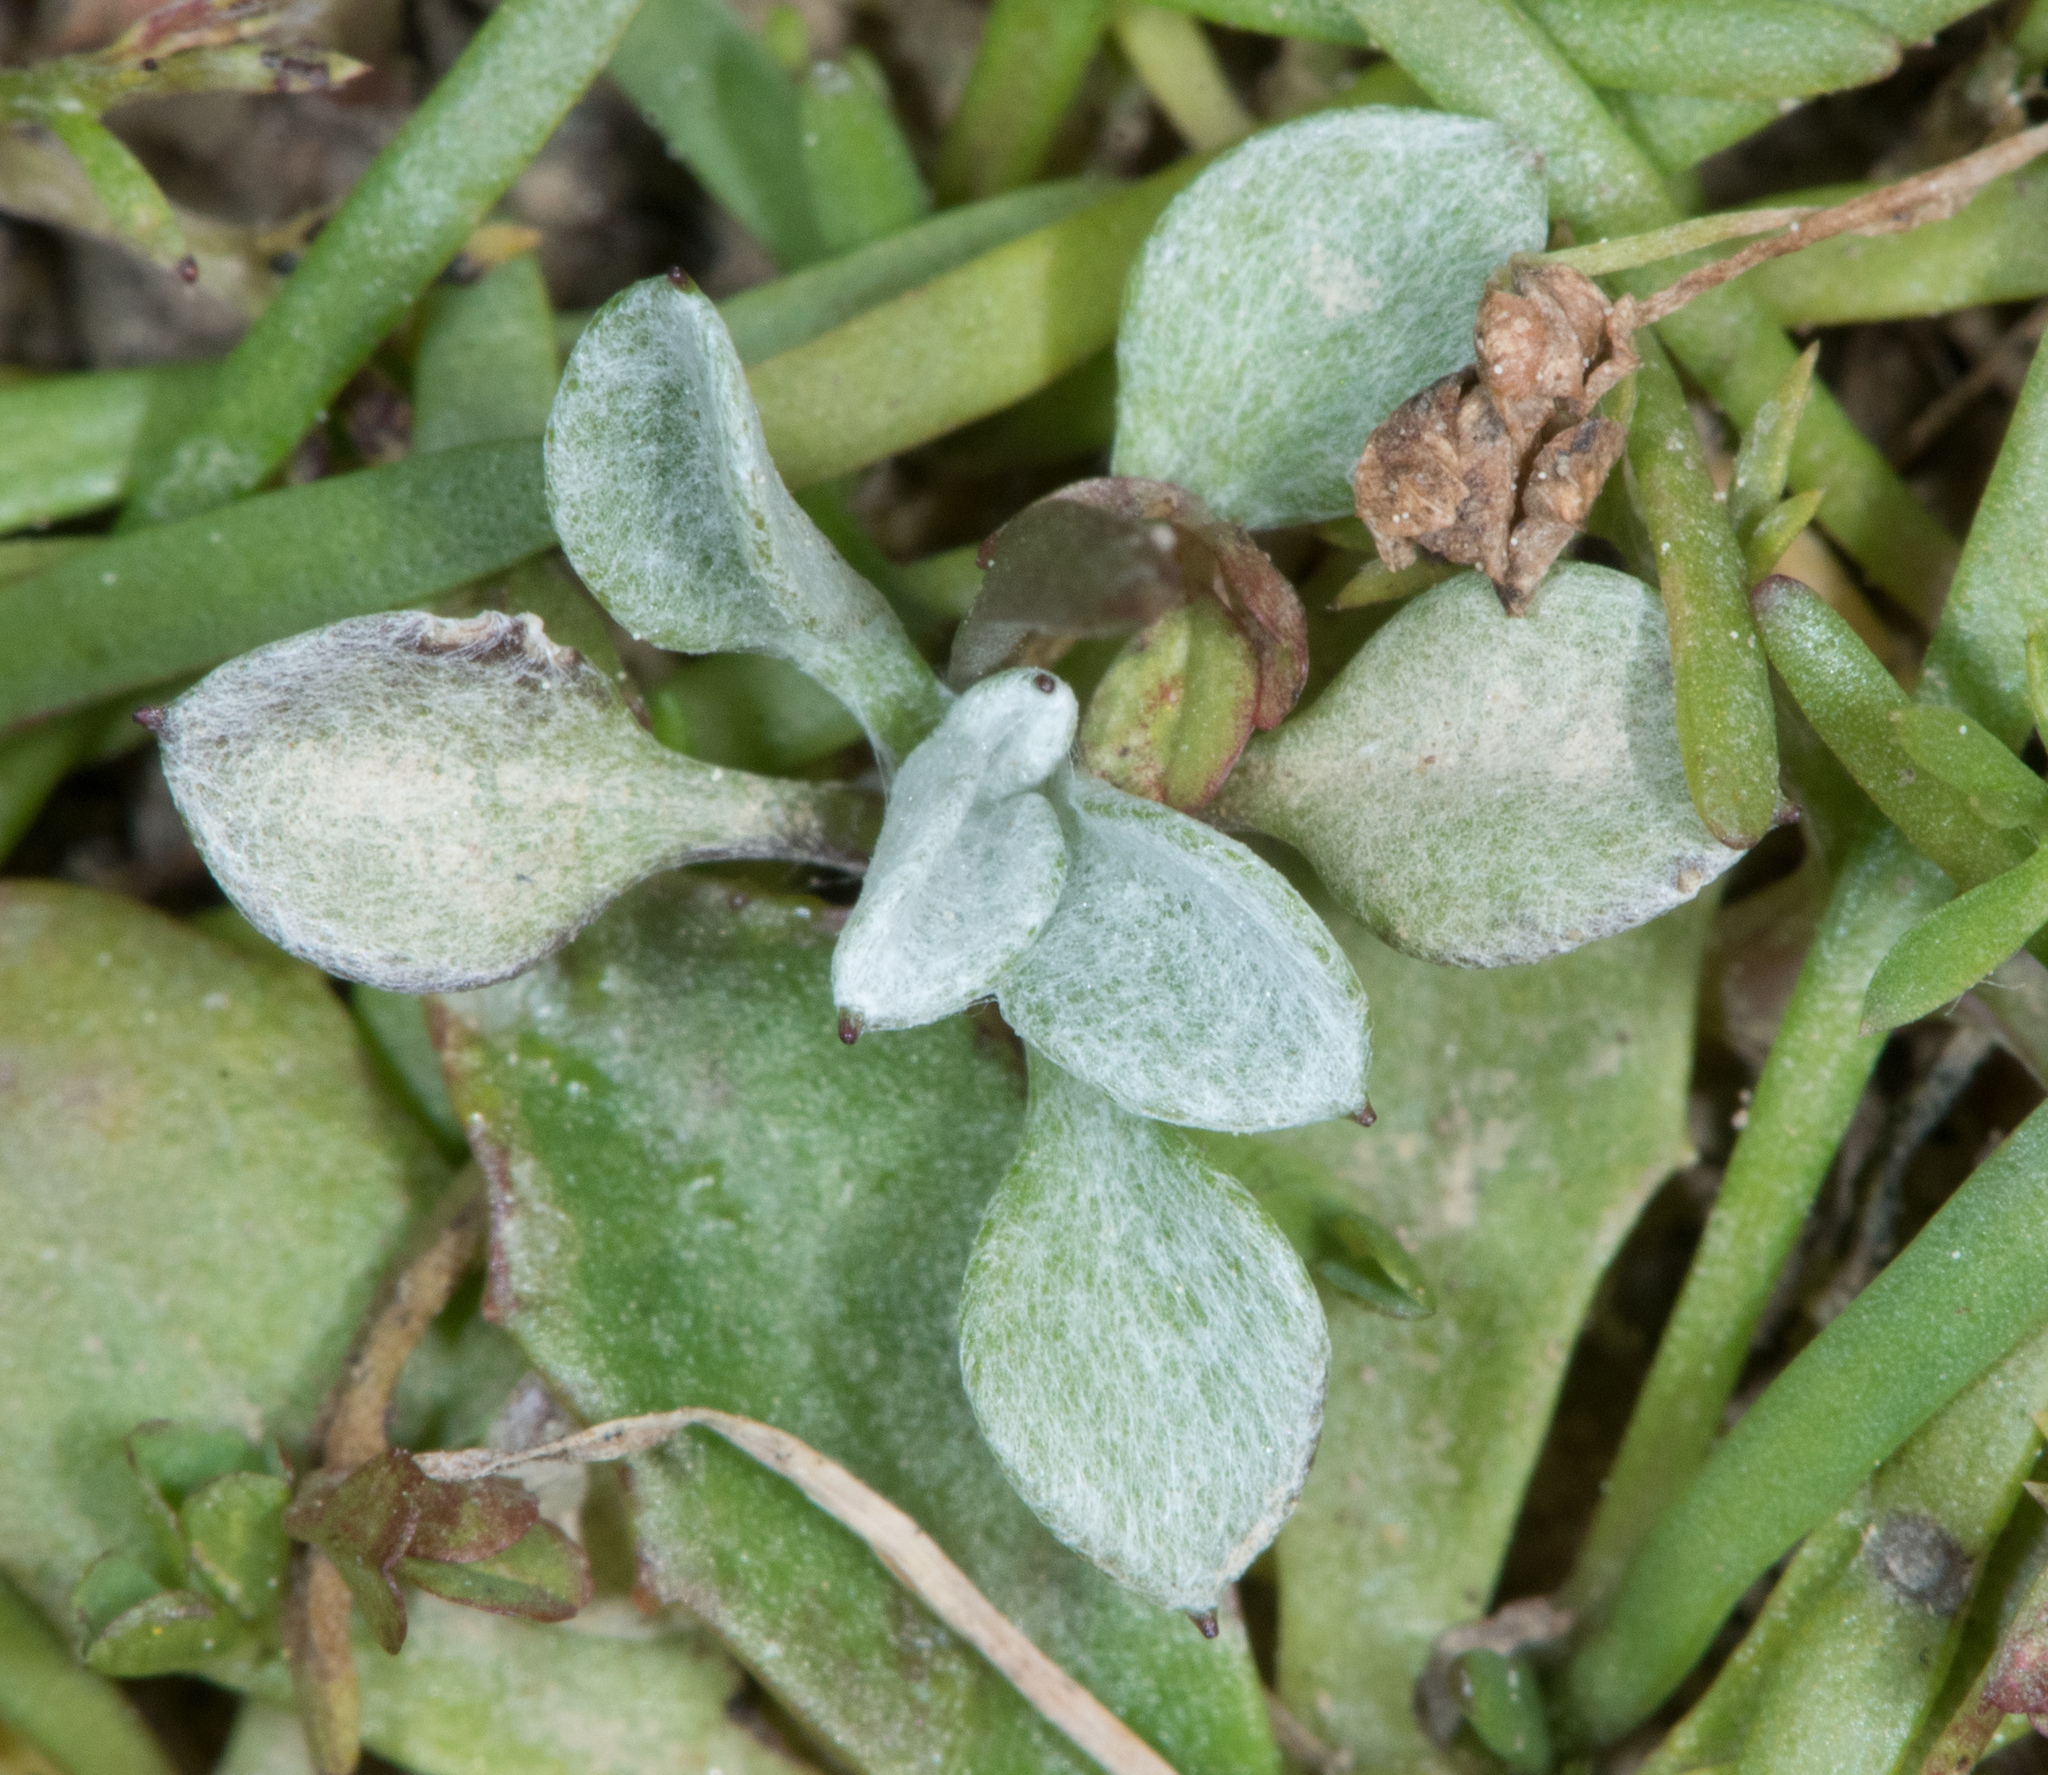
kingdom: Plantae
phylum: Tracheophyta
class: Magnoliopsida
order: Asterales
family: Asteraceae
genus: Hesperevax
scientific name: Hesperevax sparsiflora
